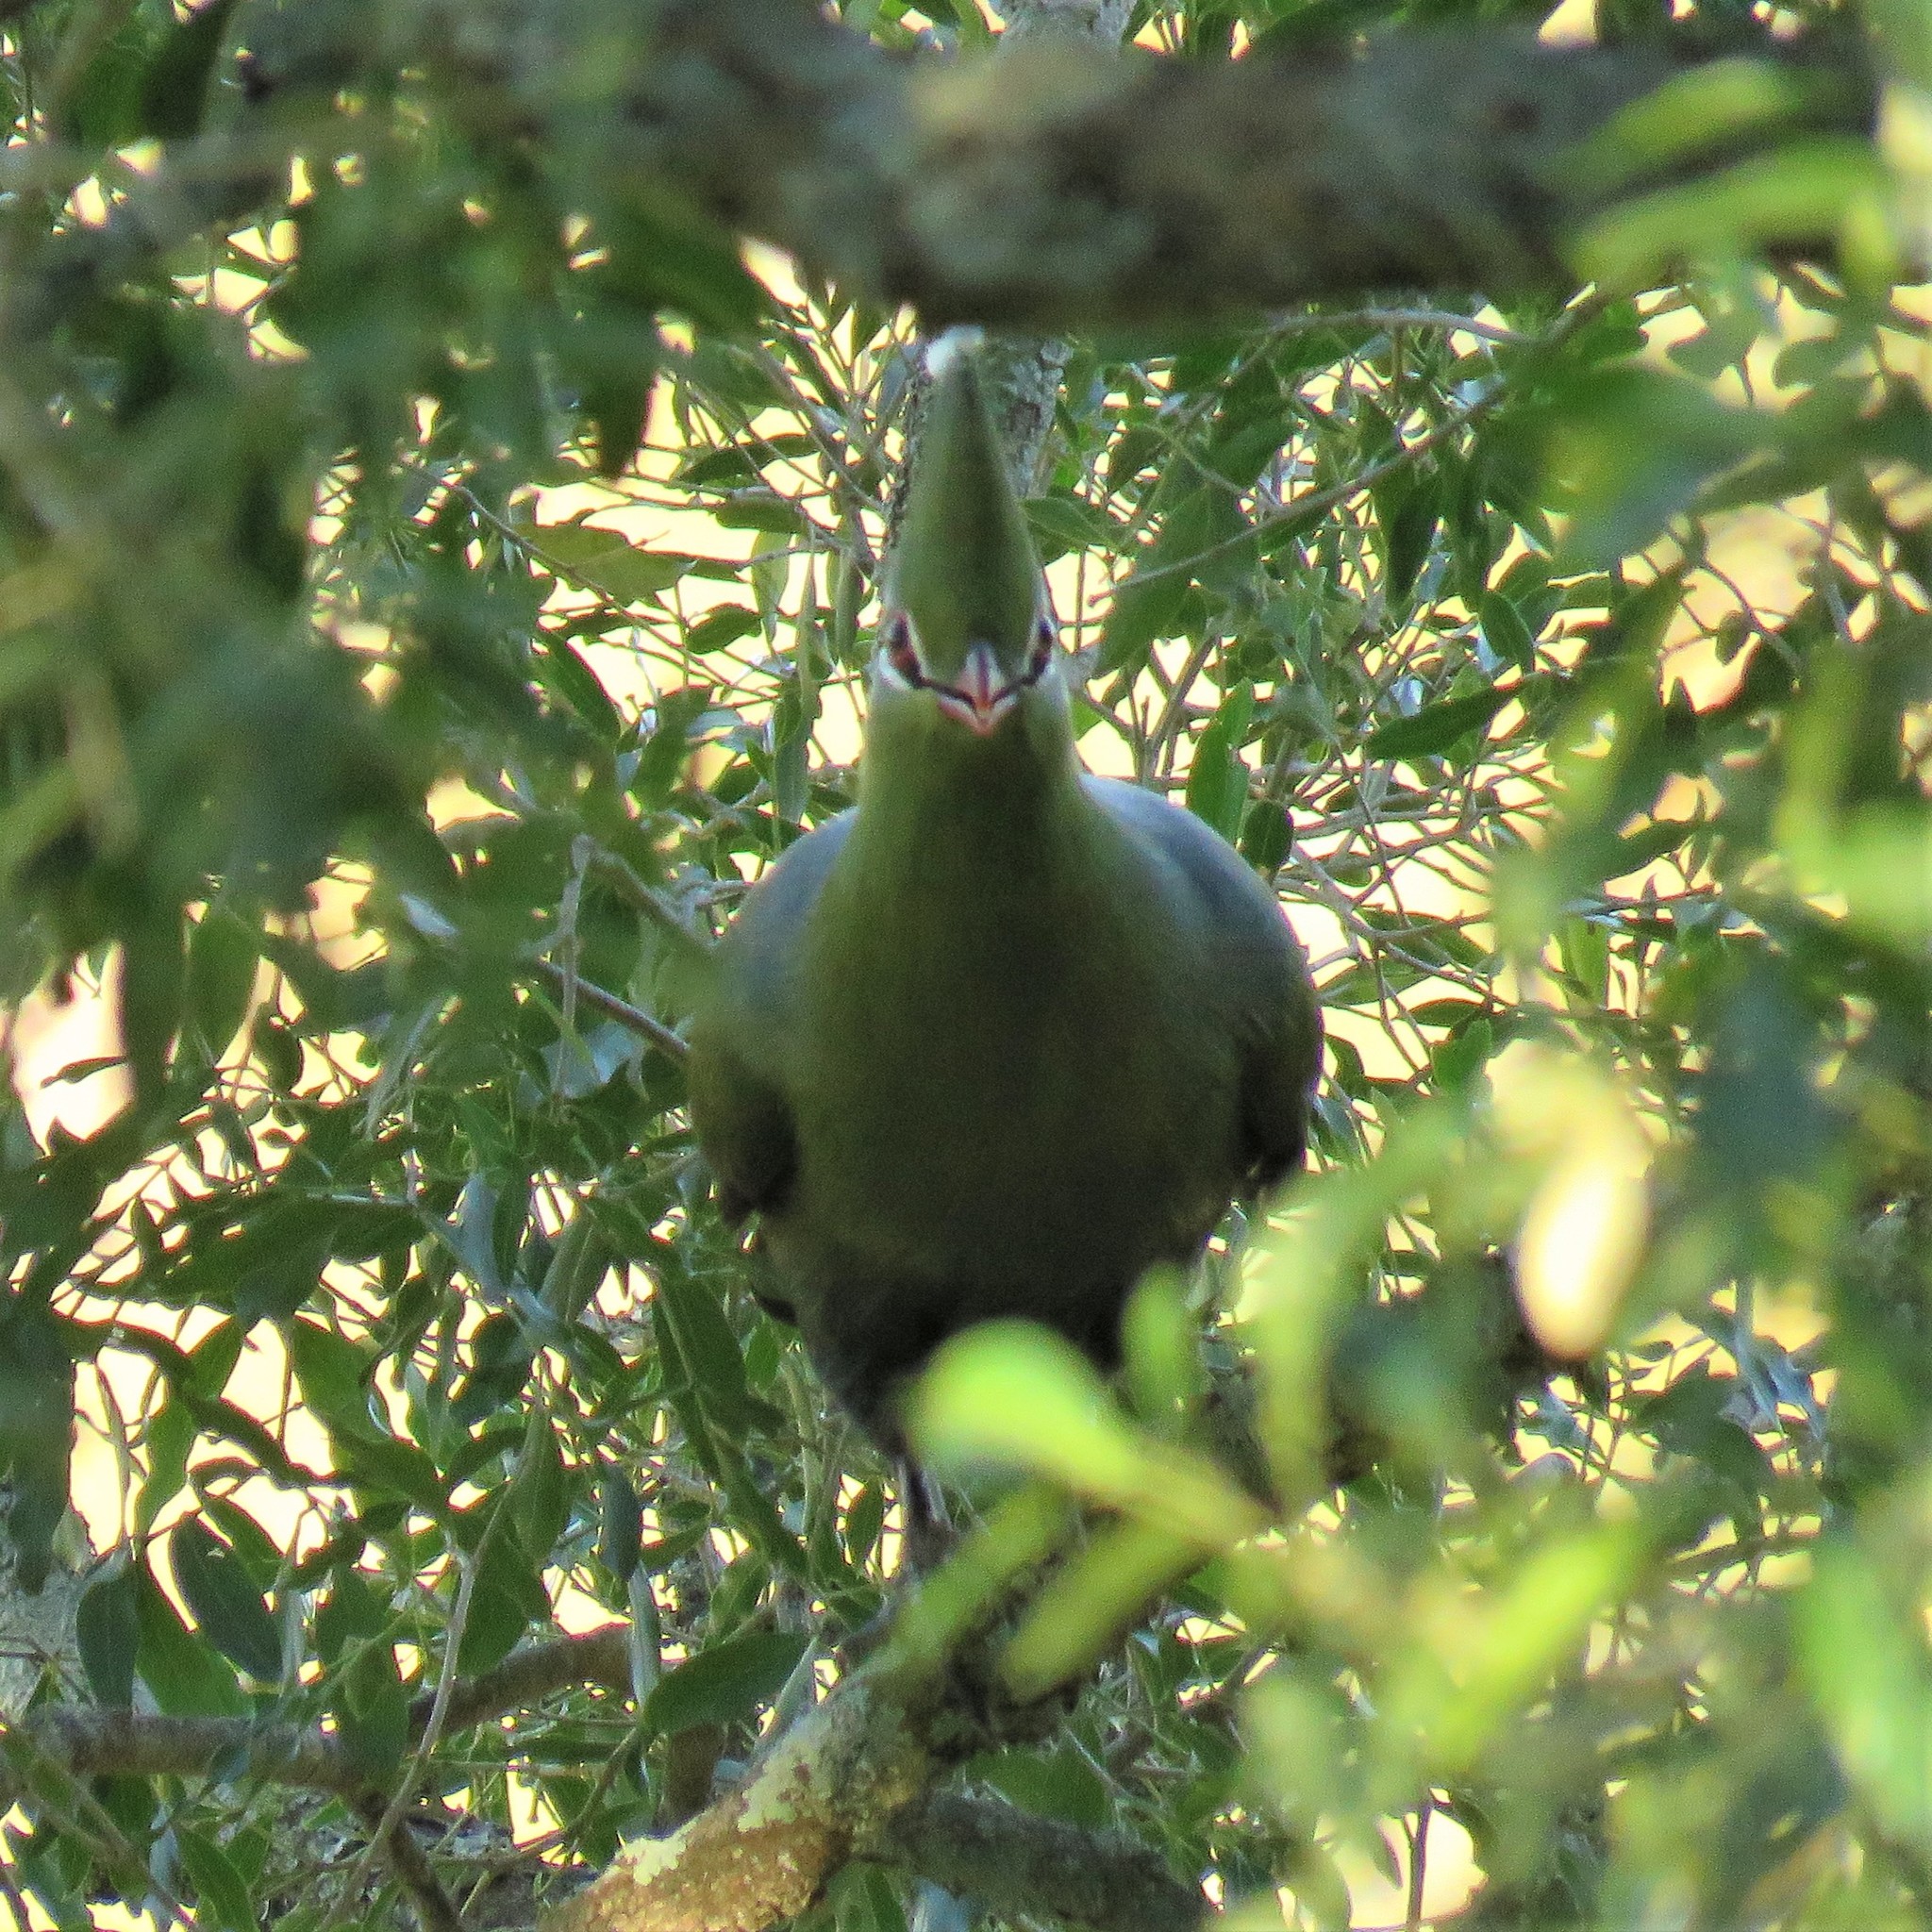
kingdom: Animalia
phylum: Chordata
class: Aves
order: Musophagiformes
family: Musophagidae
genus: Tauraco
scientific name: Tauraco corythaix
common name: Knysna turaco
